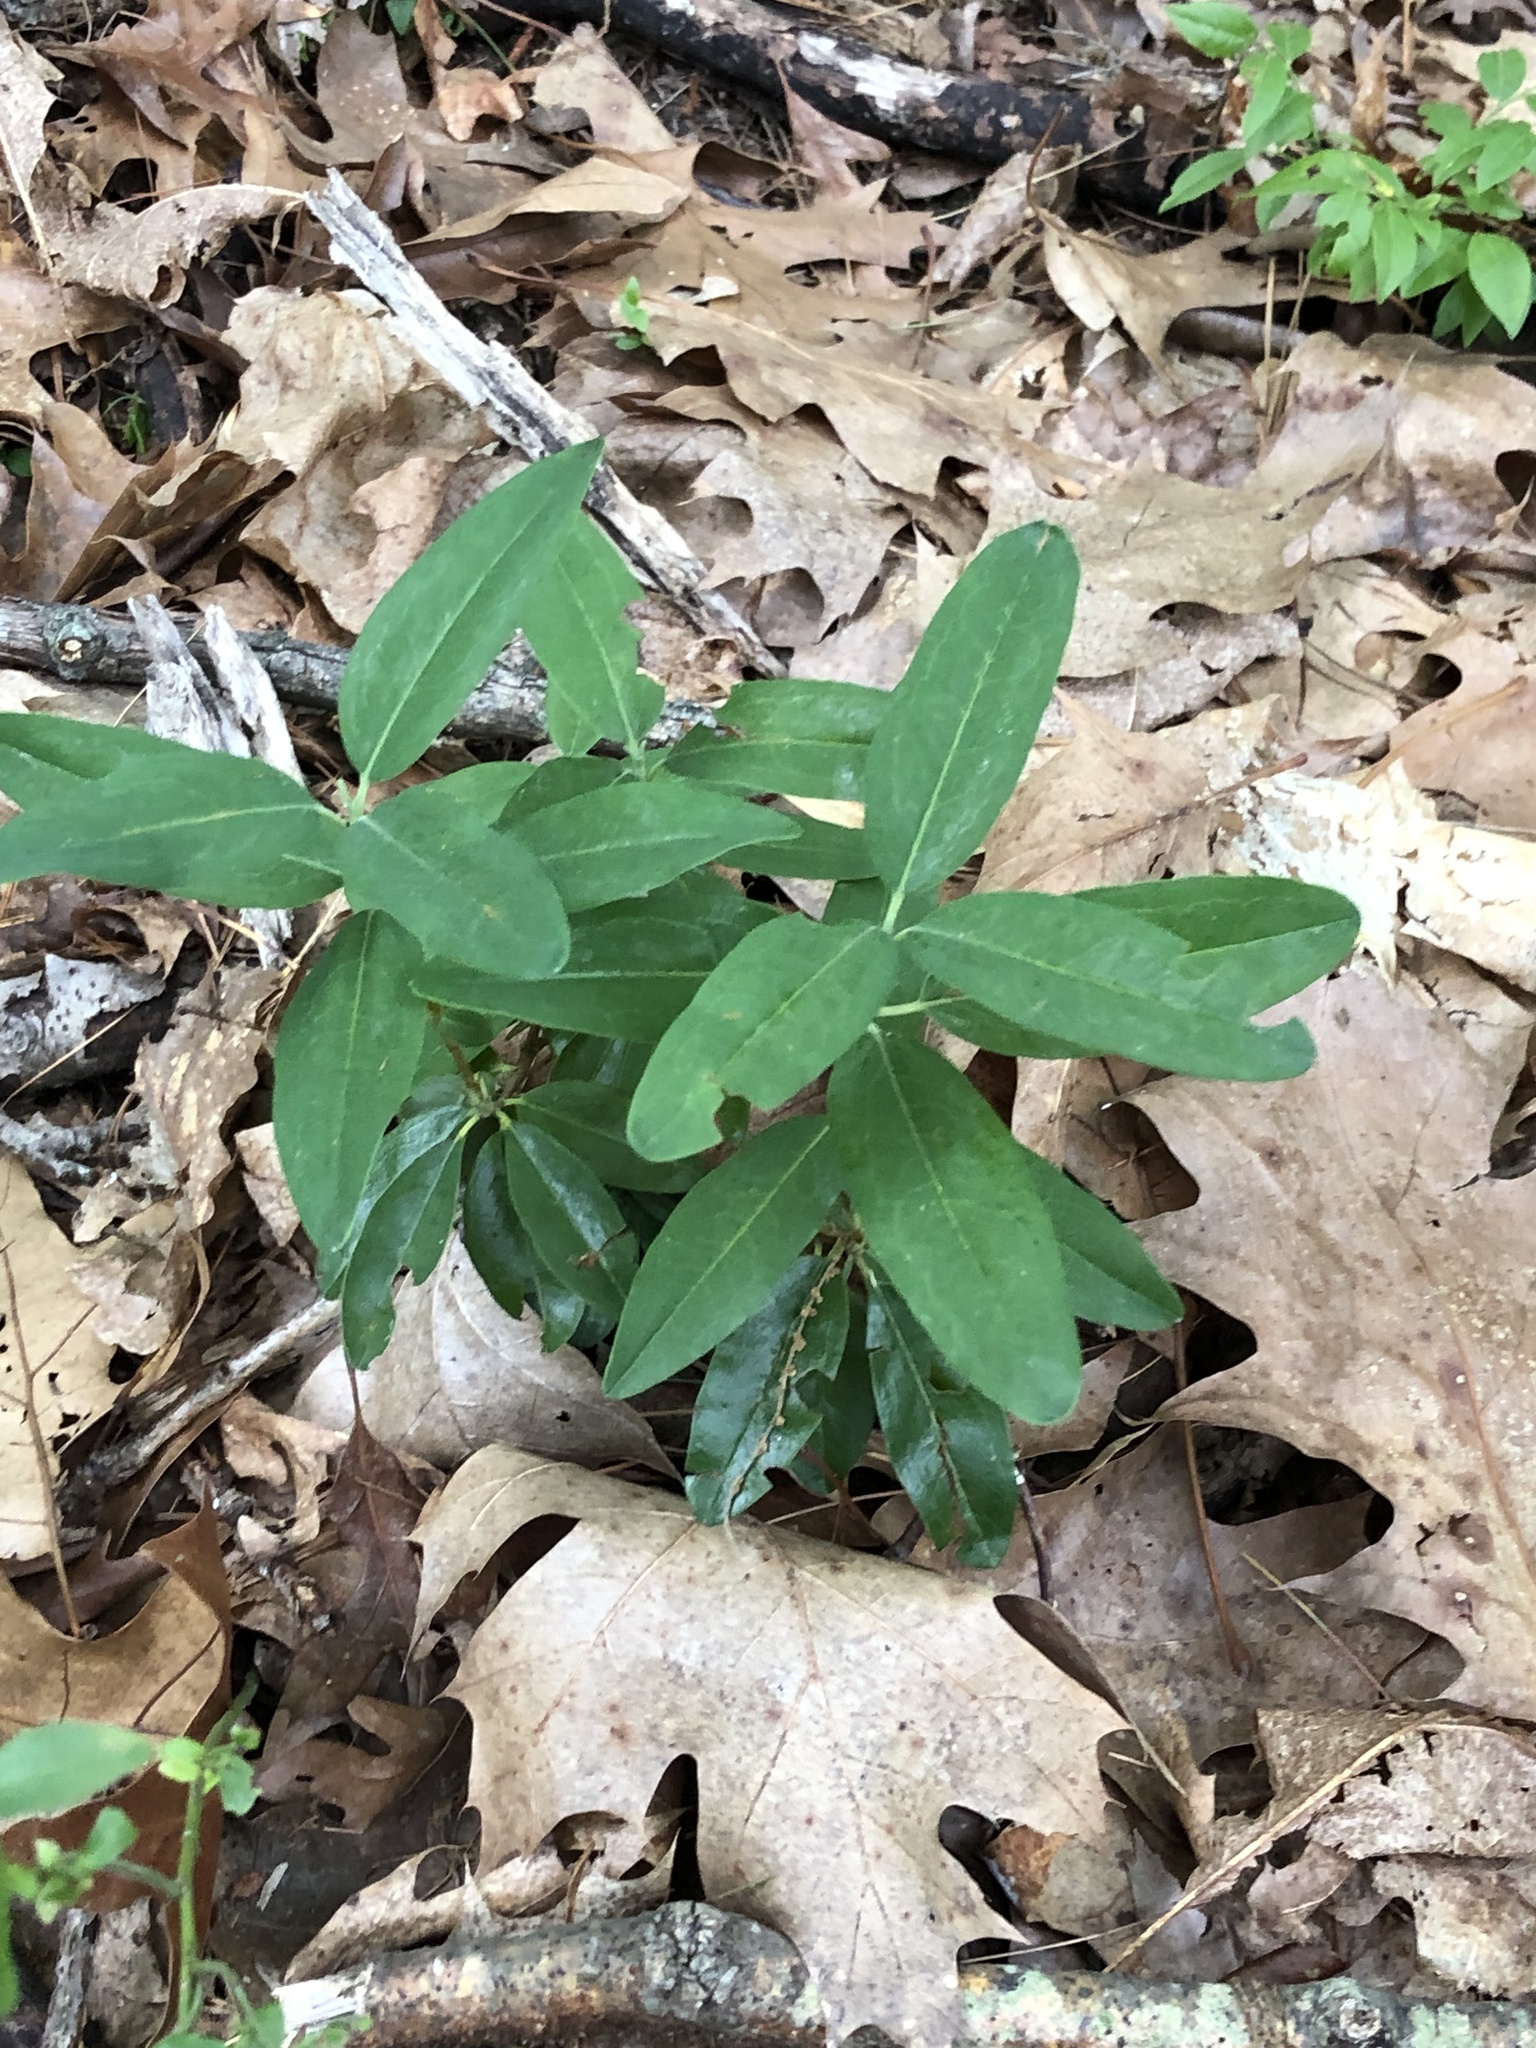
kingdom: Plantae
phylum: Tracheophyta
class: Magnoliopsida
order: Ericales
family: Ericaceae
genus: Kalmia
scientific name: Kalmia angustifolia
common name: Sheep-laurel
